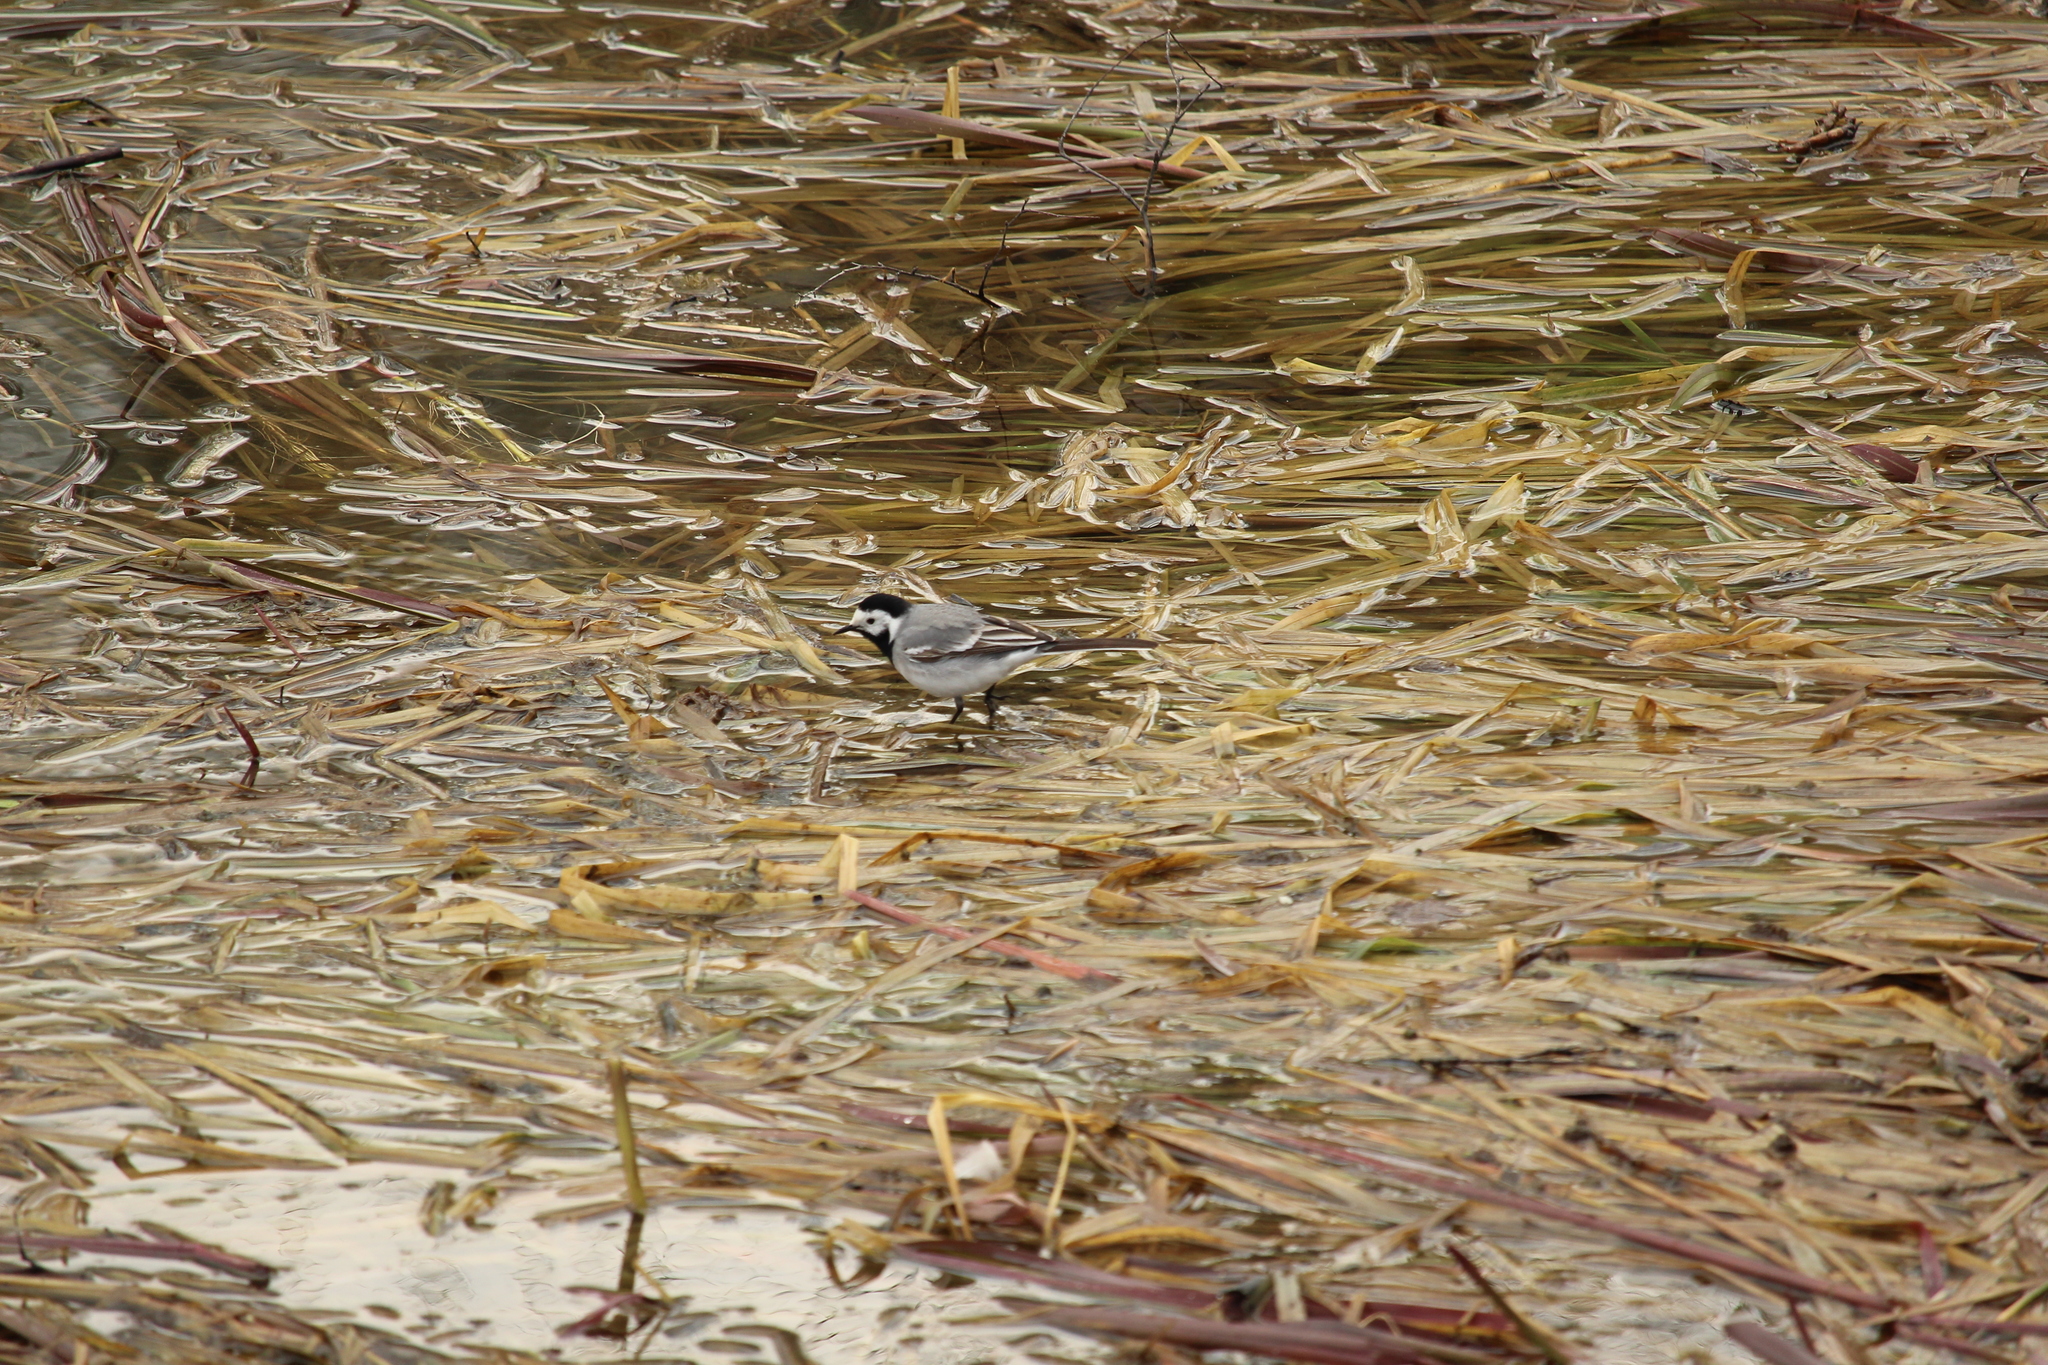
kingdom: Animalia
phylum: Chordata
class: Aves
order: Passeriformes
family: Motacillidae
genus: Motacilla
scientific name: Motacilla alba
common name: White wagtail
